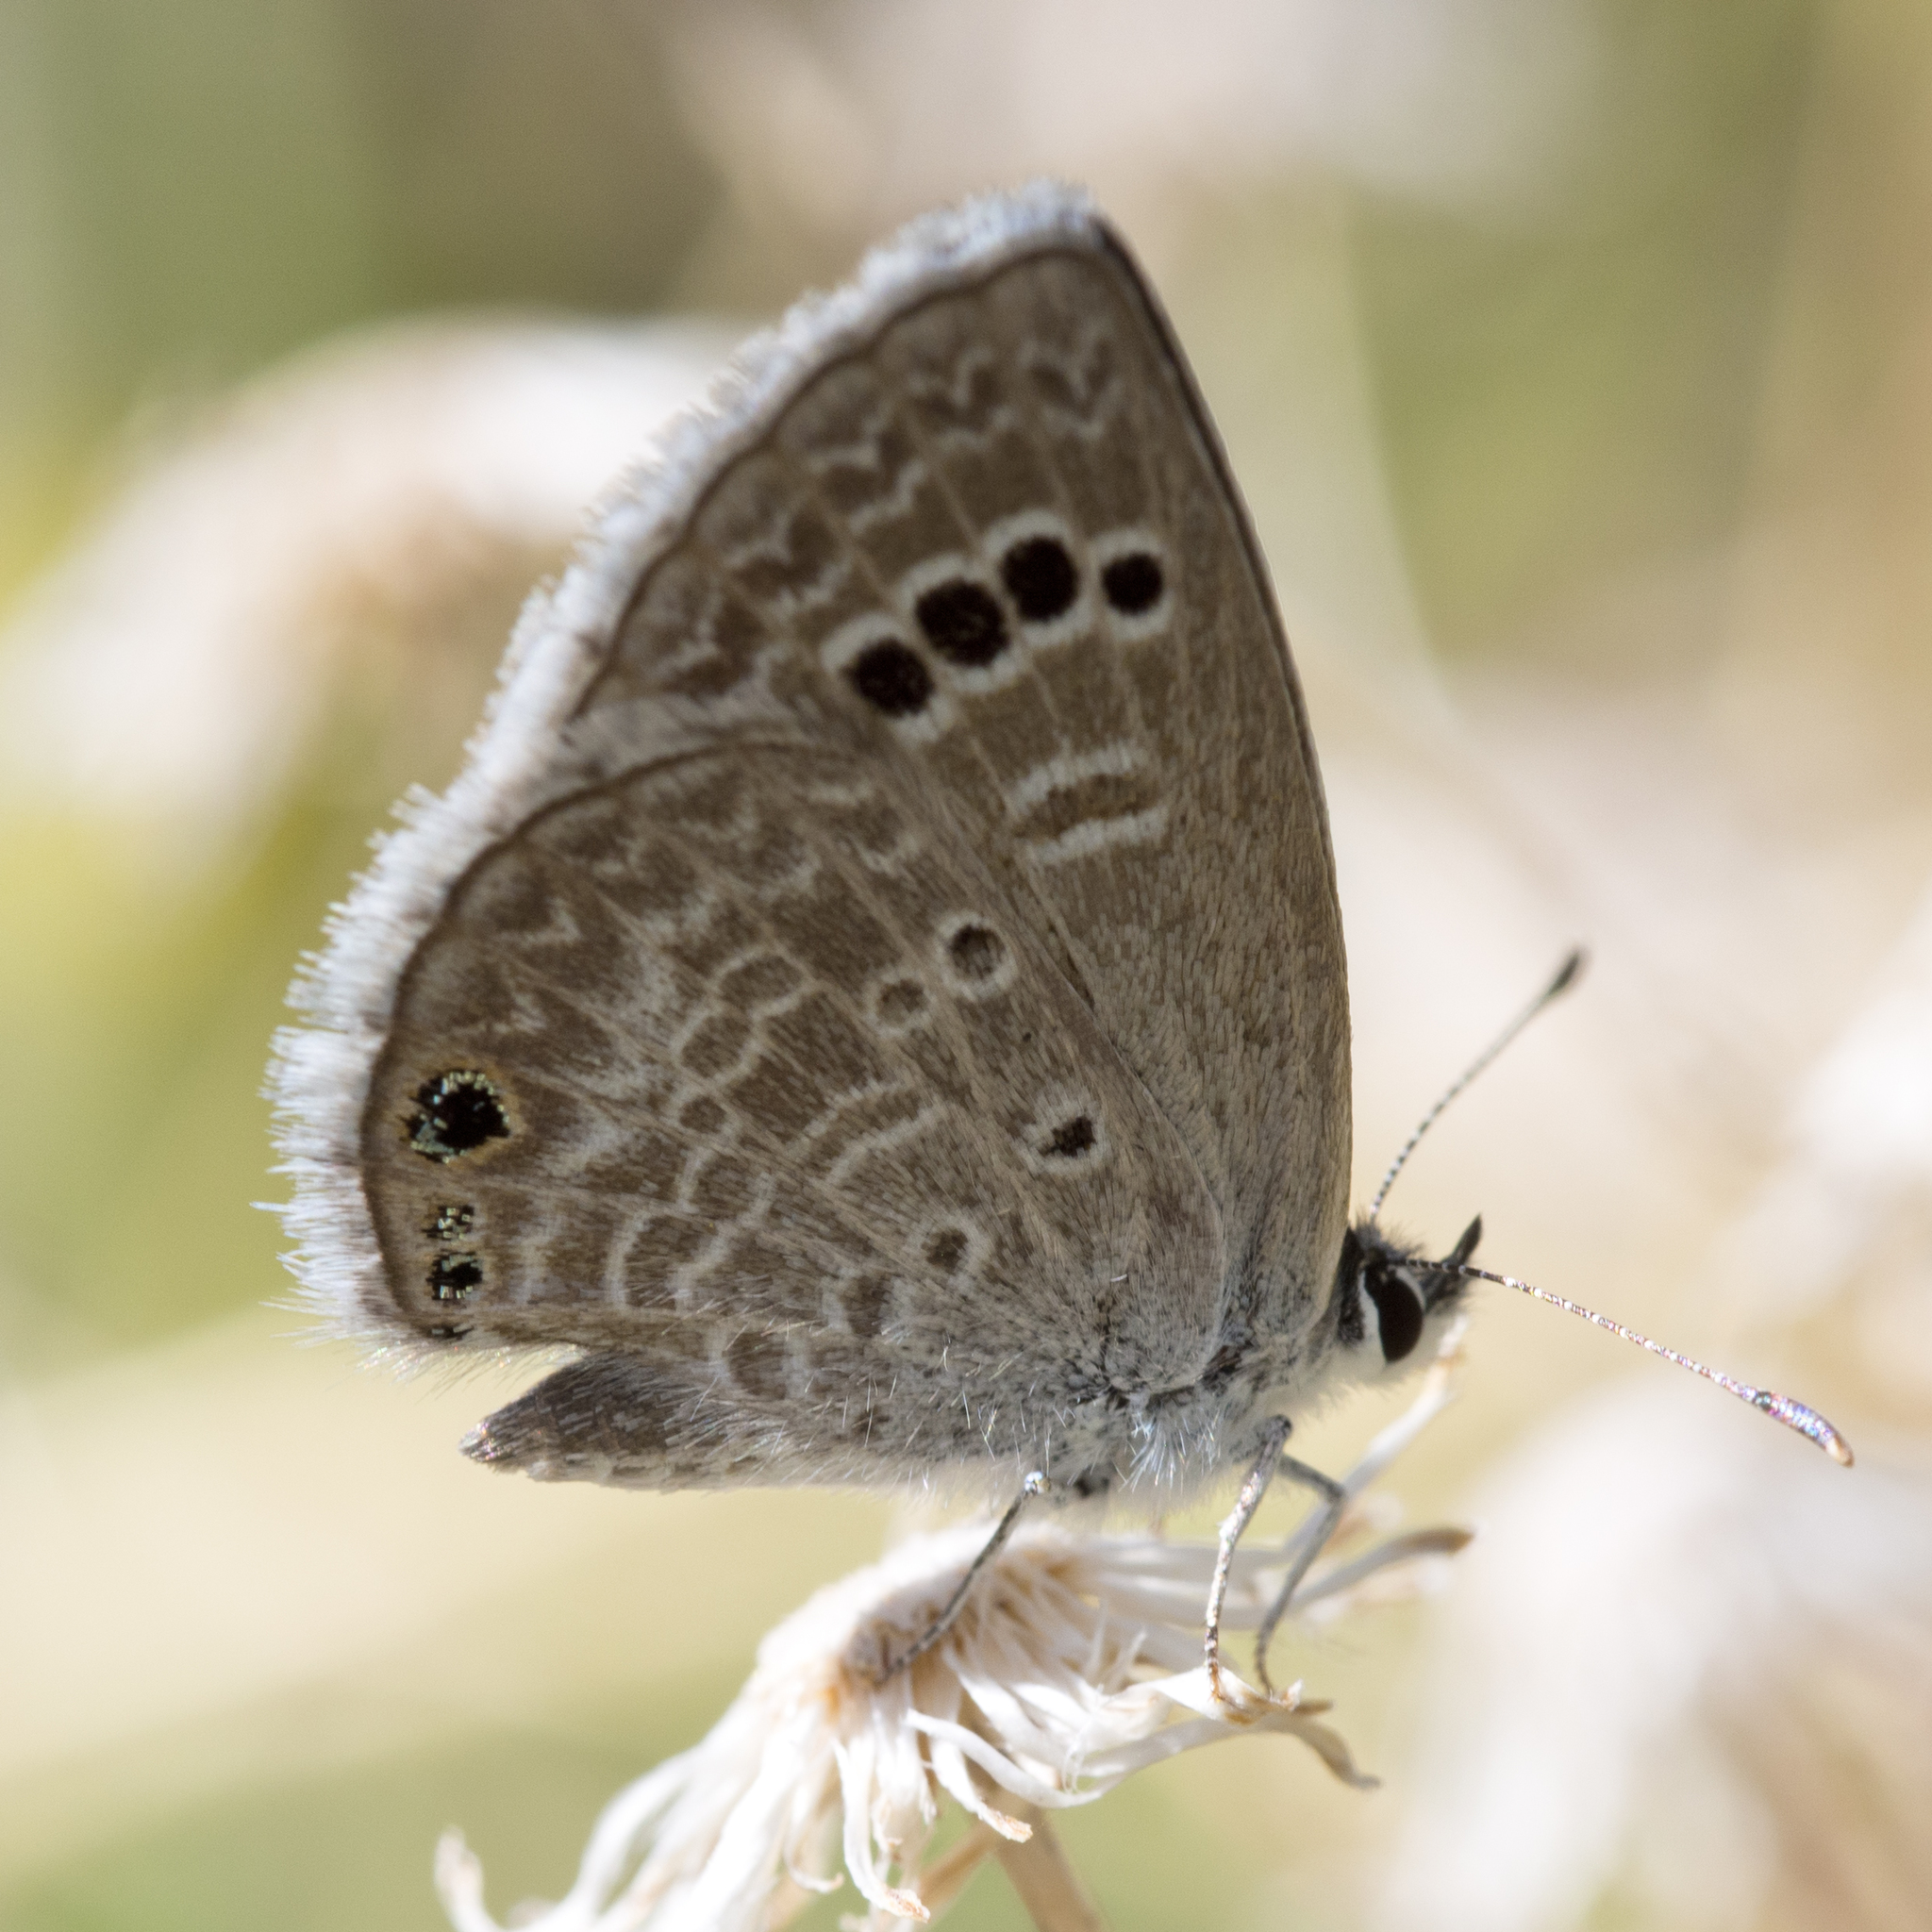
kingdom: Animalia
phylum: Arthropoda
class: Insecta
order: Lepidoptera
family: Lycaenidae
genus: Echinargus
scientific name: Echinargus isola
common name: Reakirt's blue
